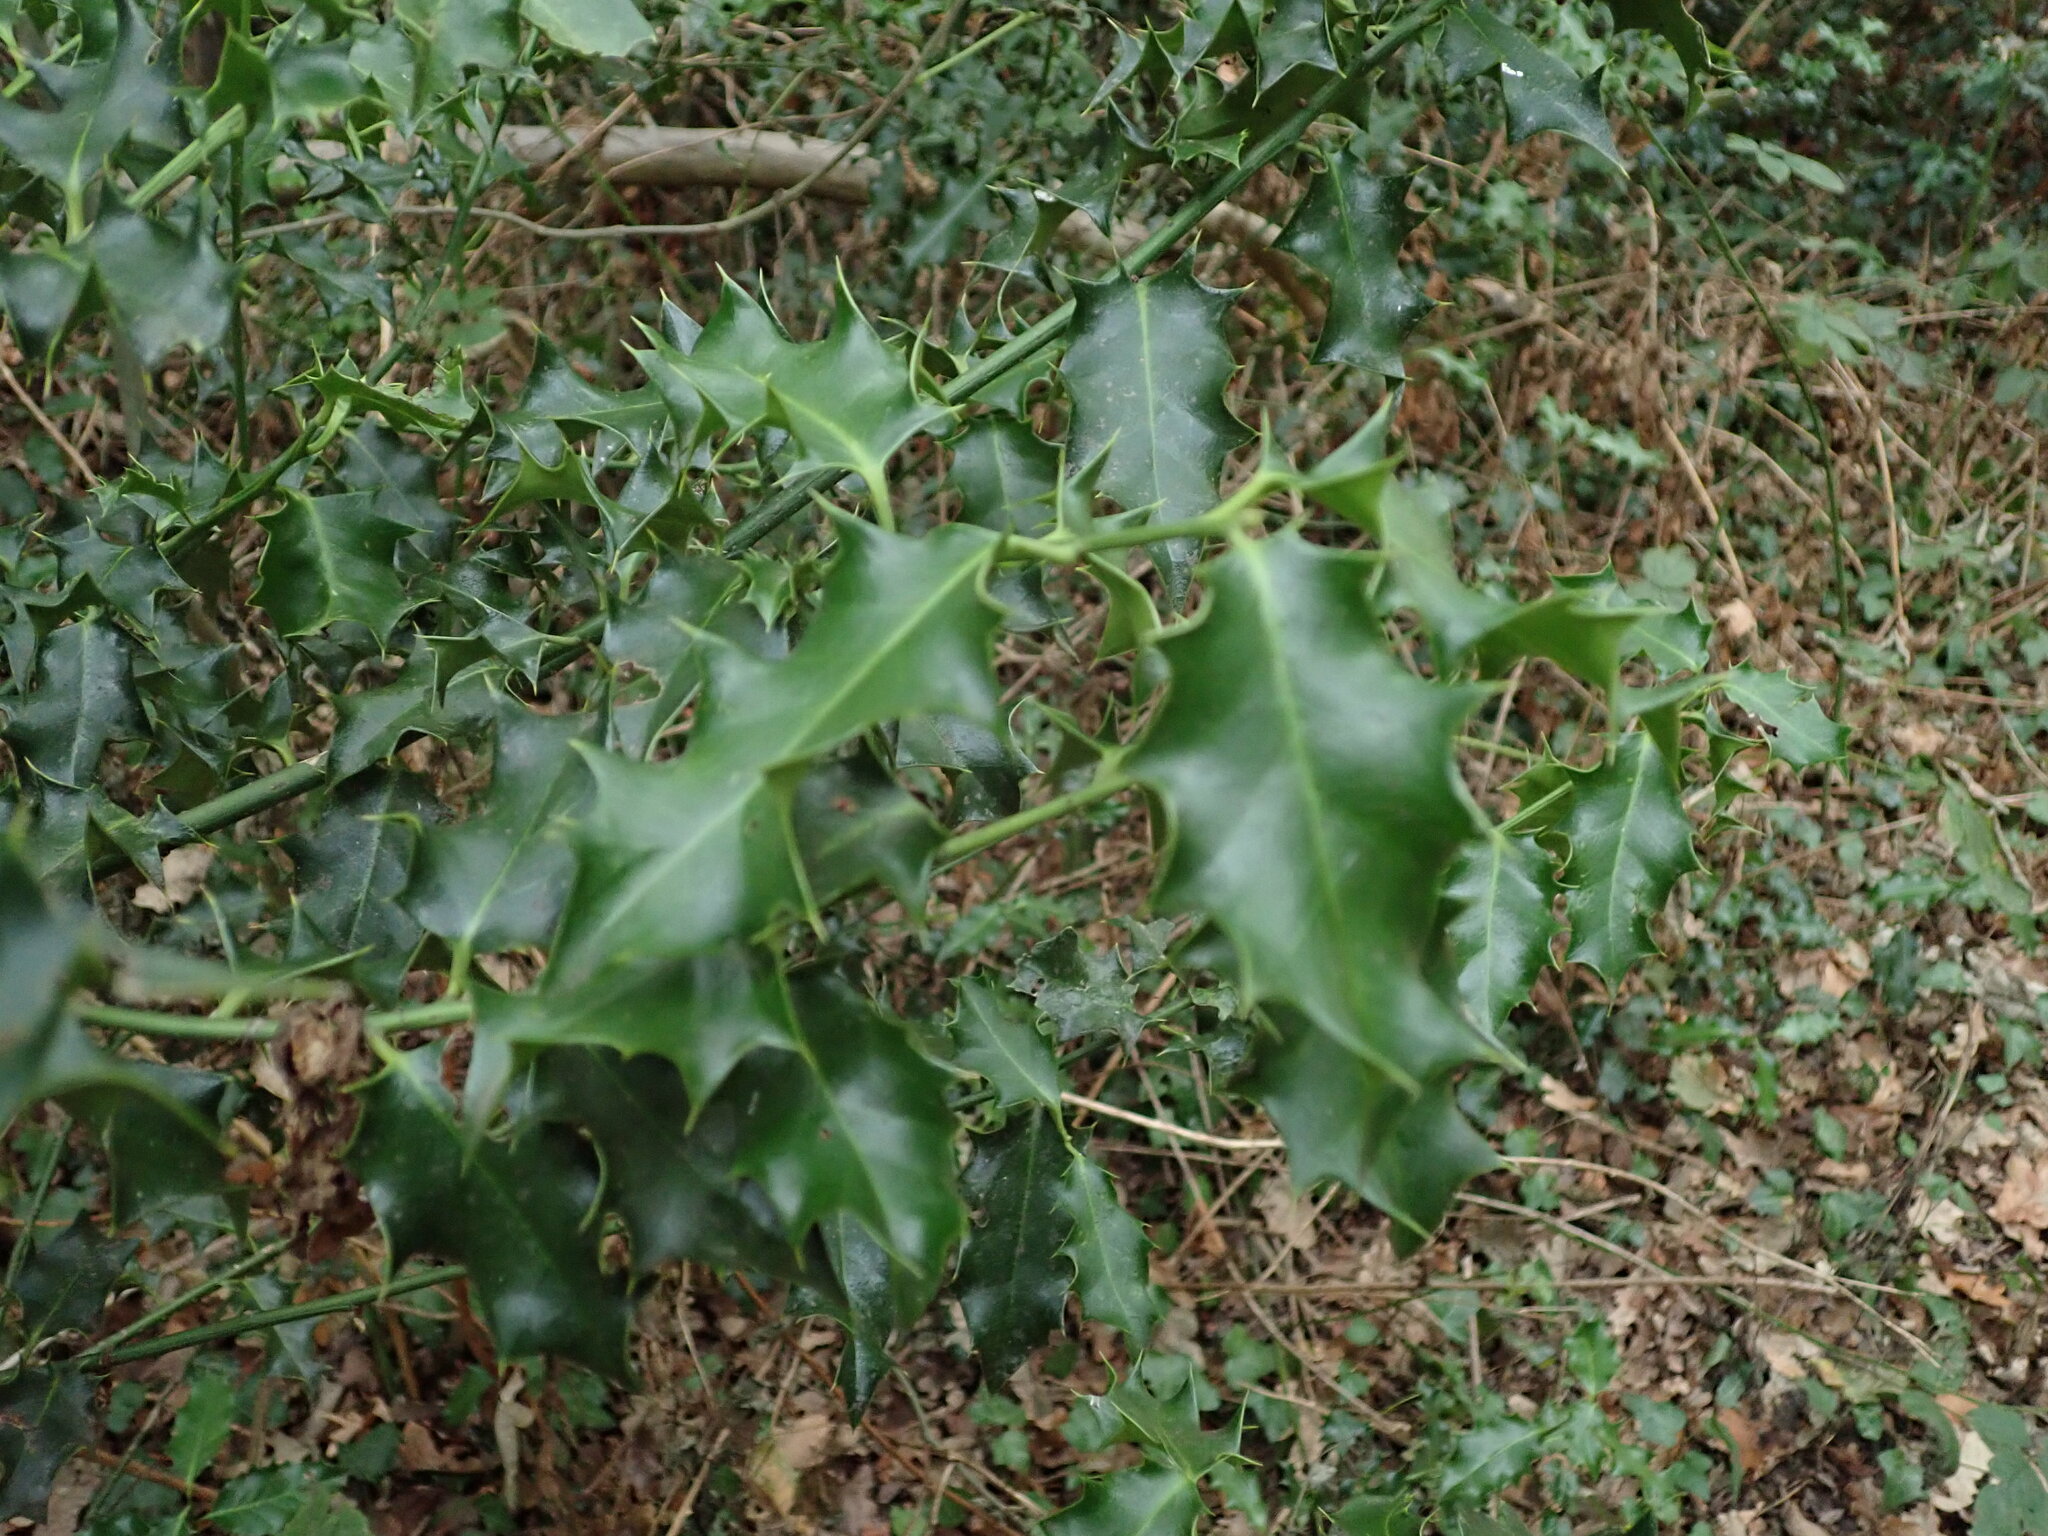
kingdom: Plantae
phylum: Tracheophyta
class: Magnoliopsida
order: Aquifoliales
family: Aquifoliaceae
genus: Ilex
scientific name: Ilex aquifolium
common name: English holly
